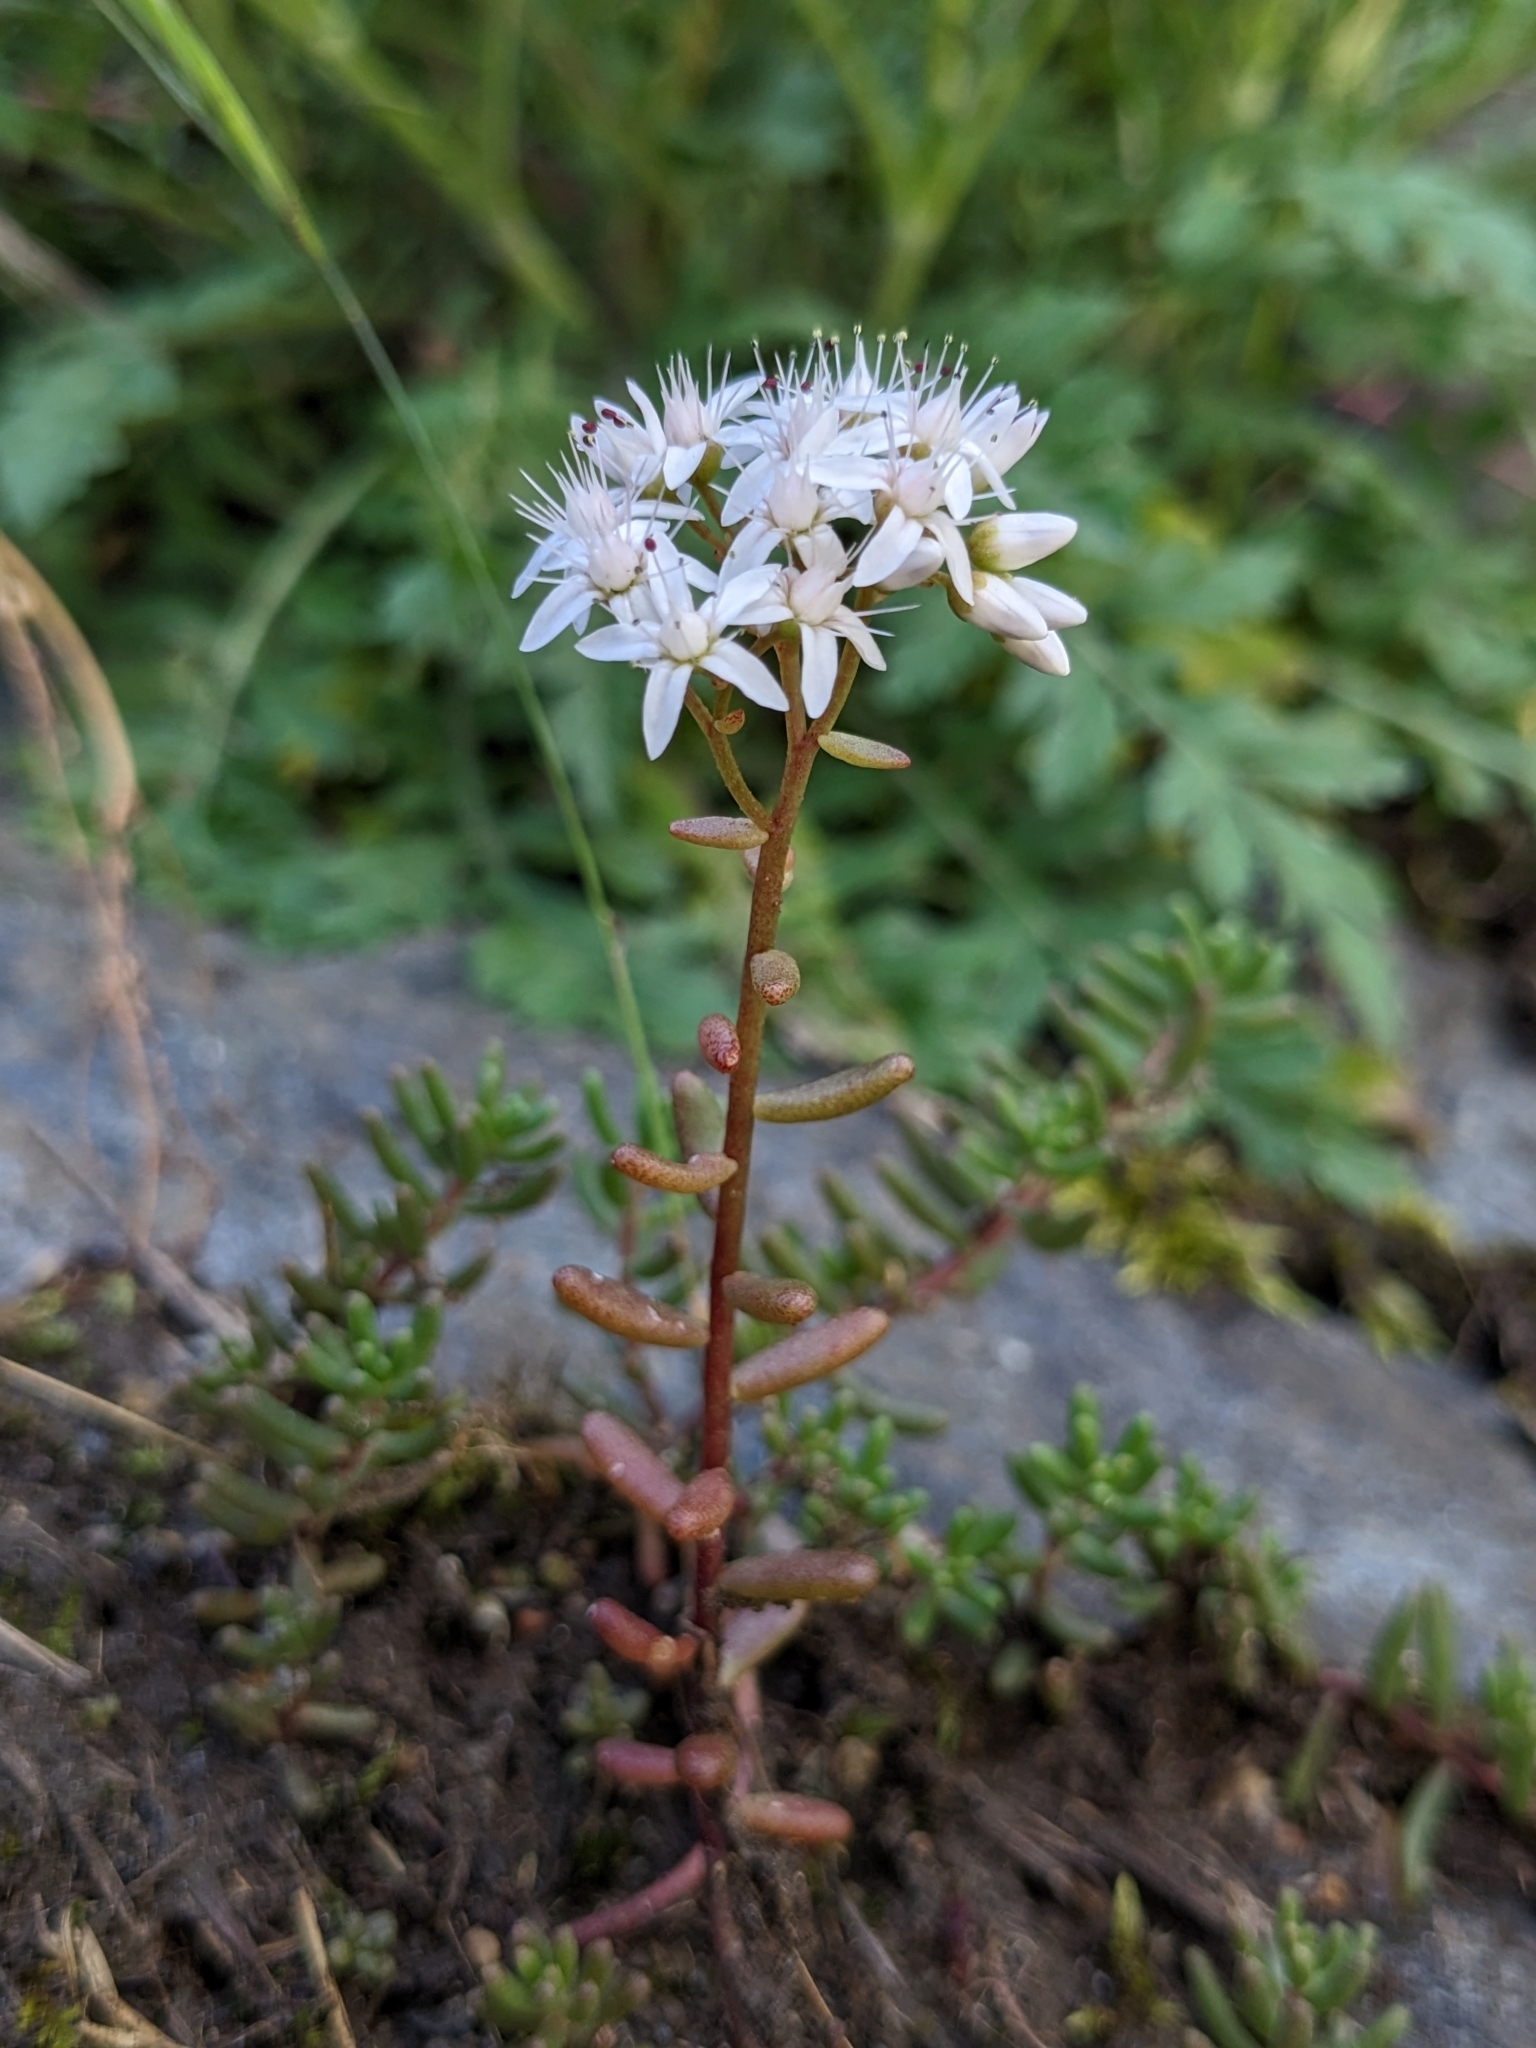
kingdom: Plantae
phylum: Tracheophyta
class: Magnoliopsida
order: Saxifragales
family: Crassulaceae
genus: Sedum
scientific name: Sedum album
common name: White stonecrop
